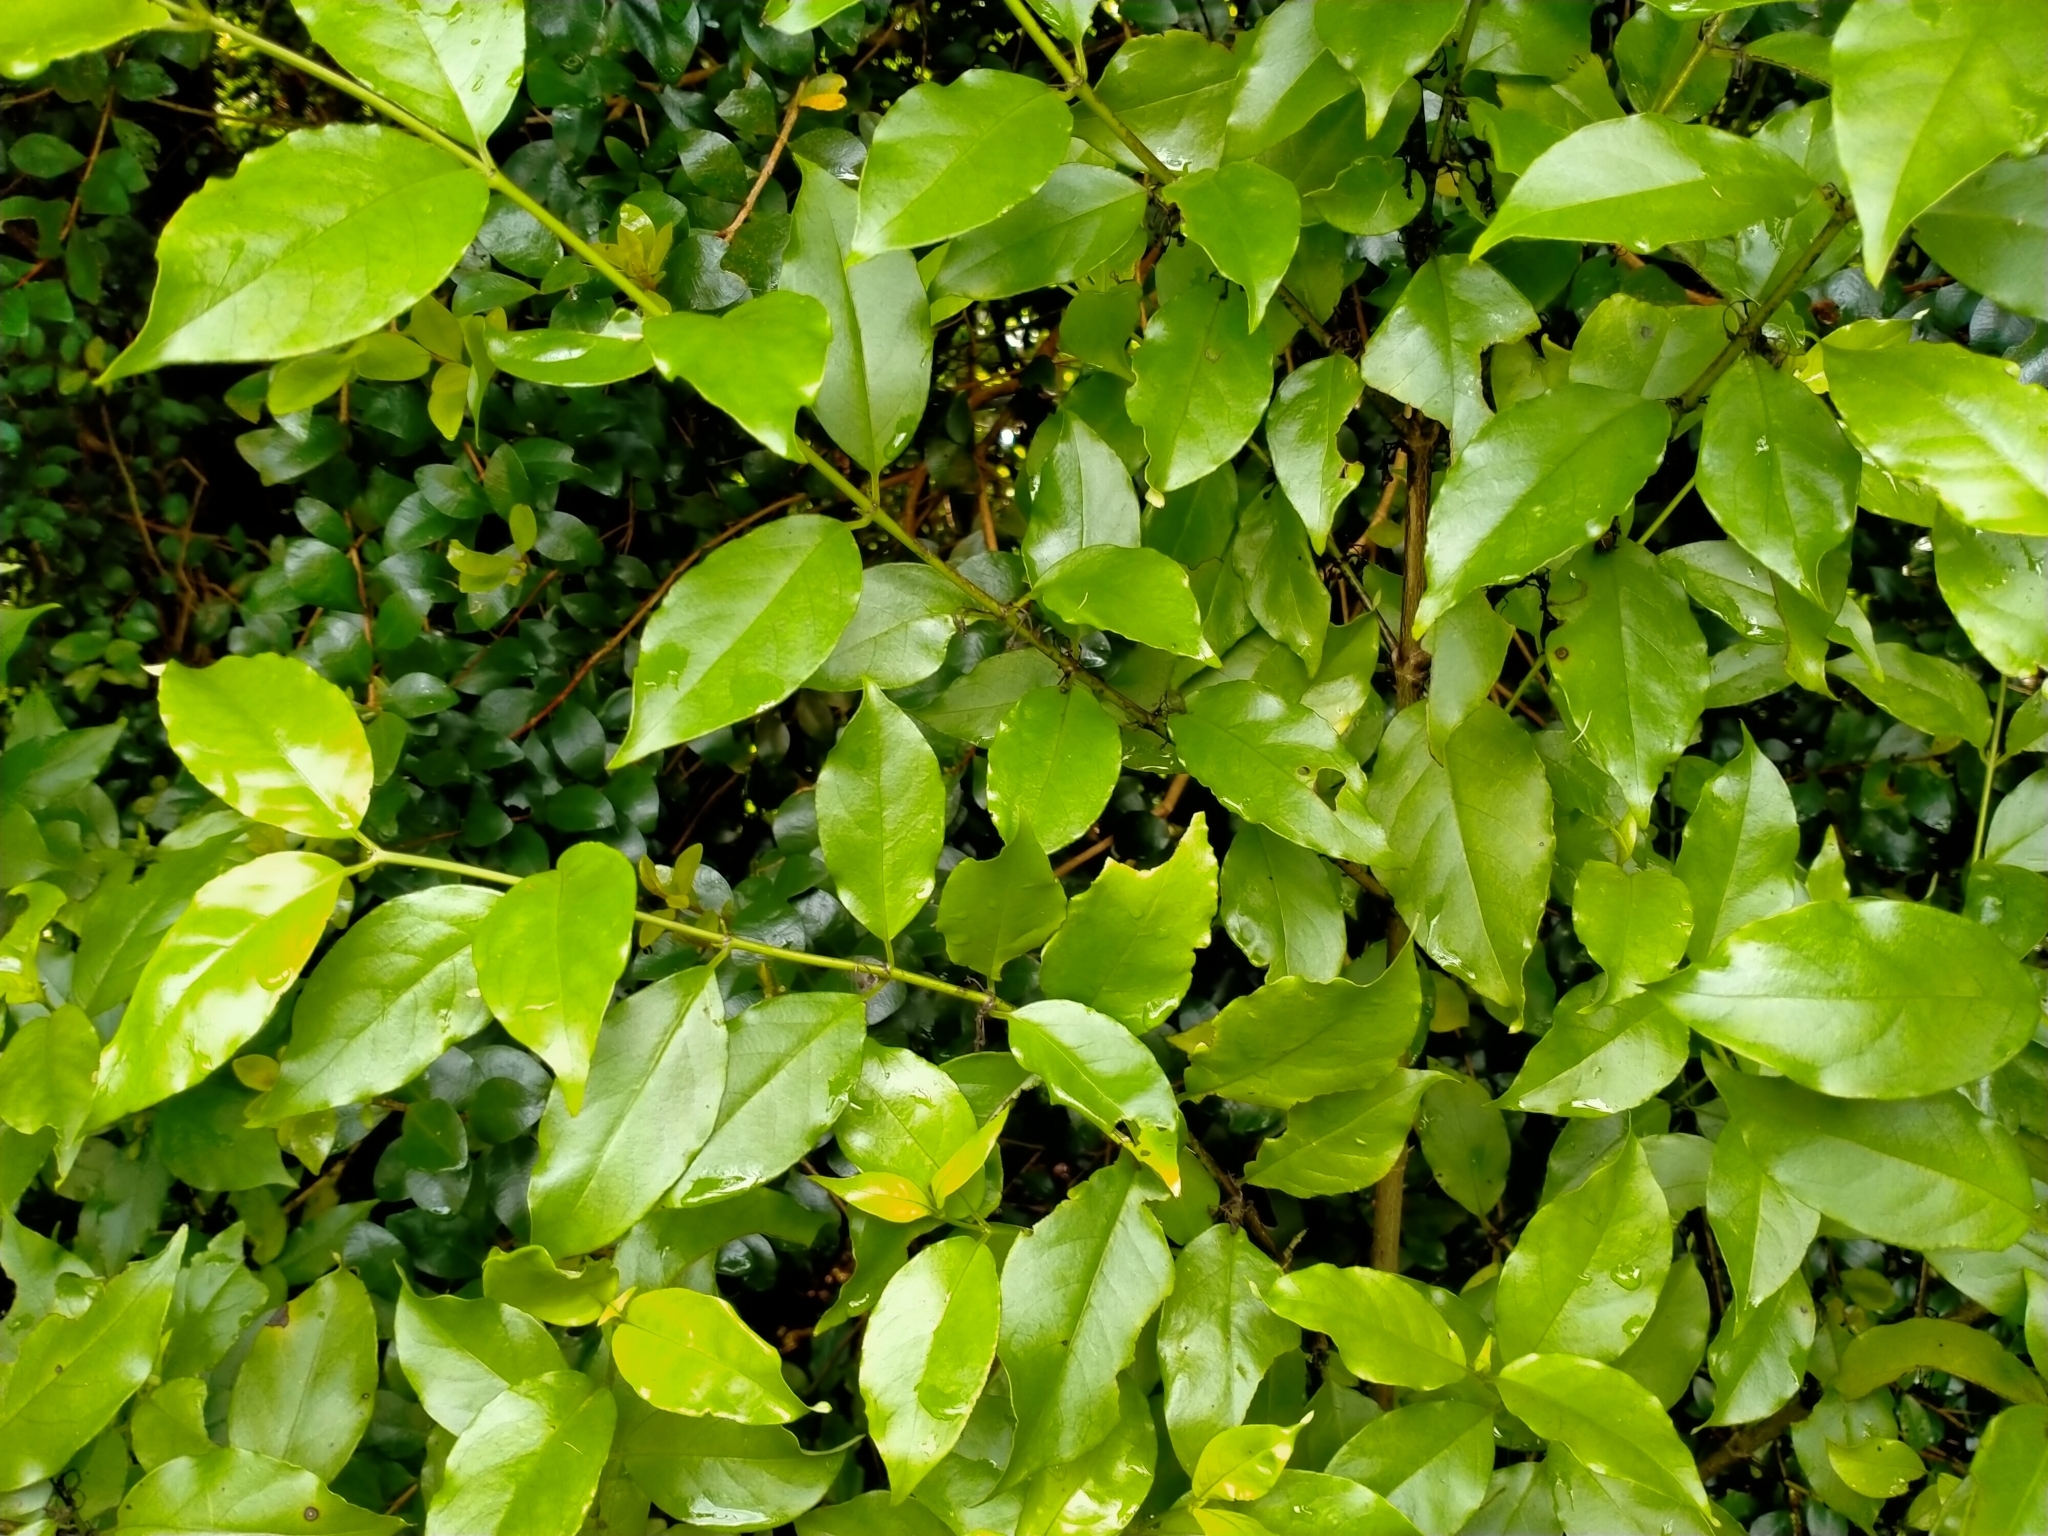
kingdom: Plantae
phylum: Tracheophyta
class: Magnoliopsida
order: Gentianales
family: Loganiaceae
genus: Geniostoma
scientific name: Geniostoma ligustrifolium
